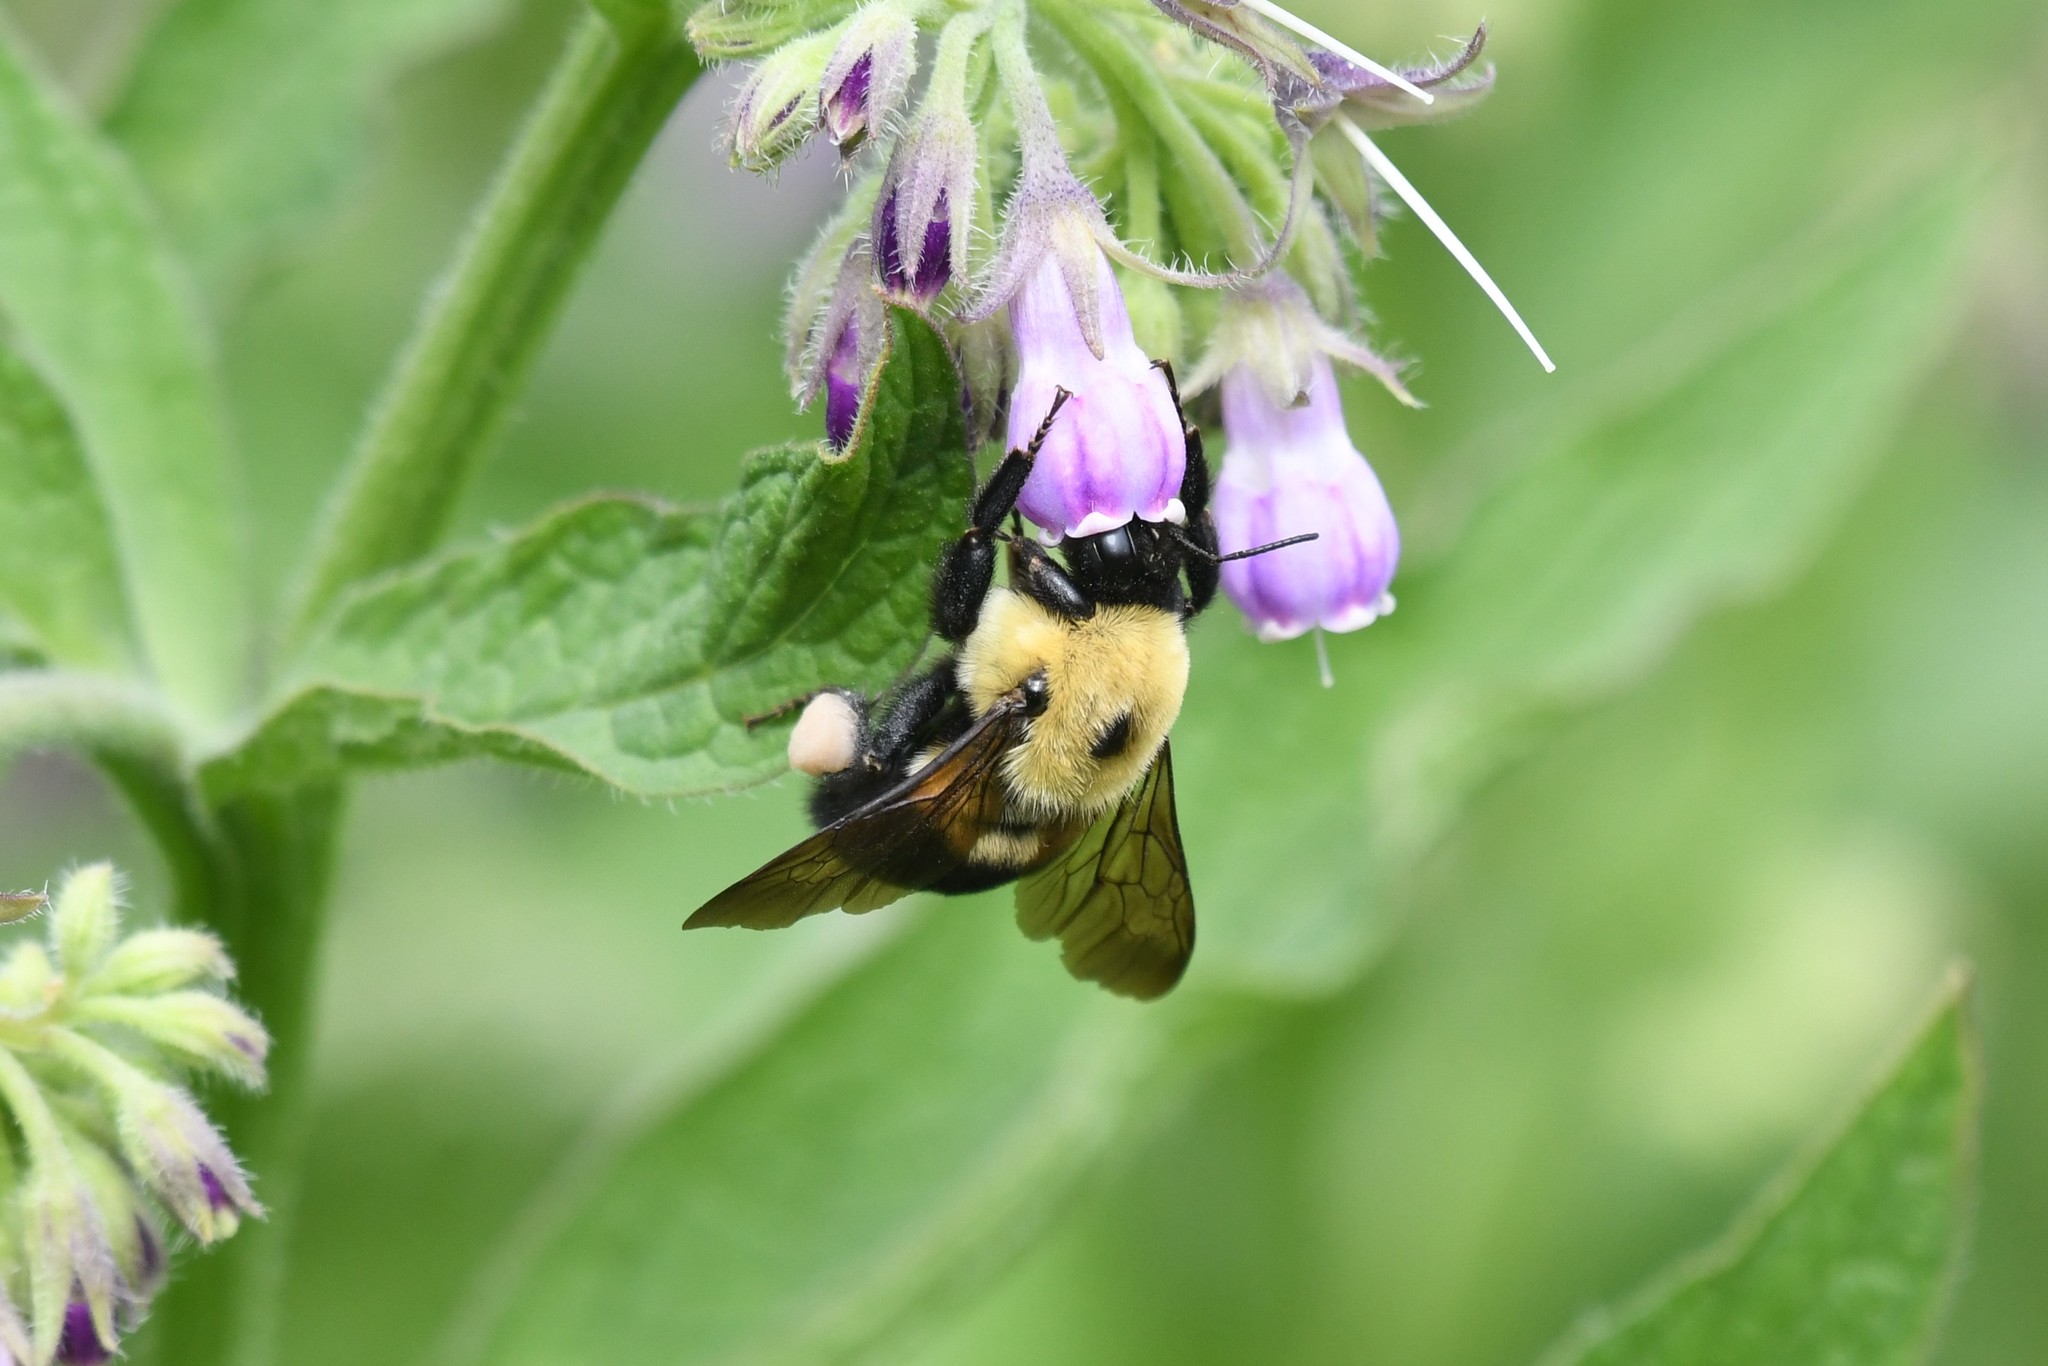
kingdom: Animalia
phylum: Arthropoda
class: Insecta
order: Hymenoptera
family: Apidae
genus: Bombus
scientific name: Bombus griseocollis
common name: Brown-belted bumble bee
